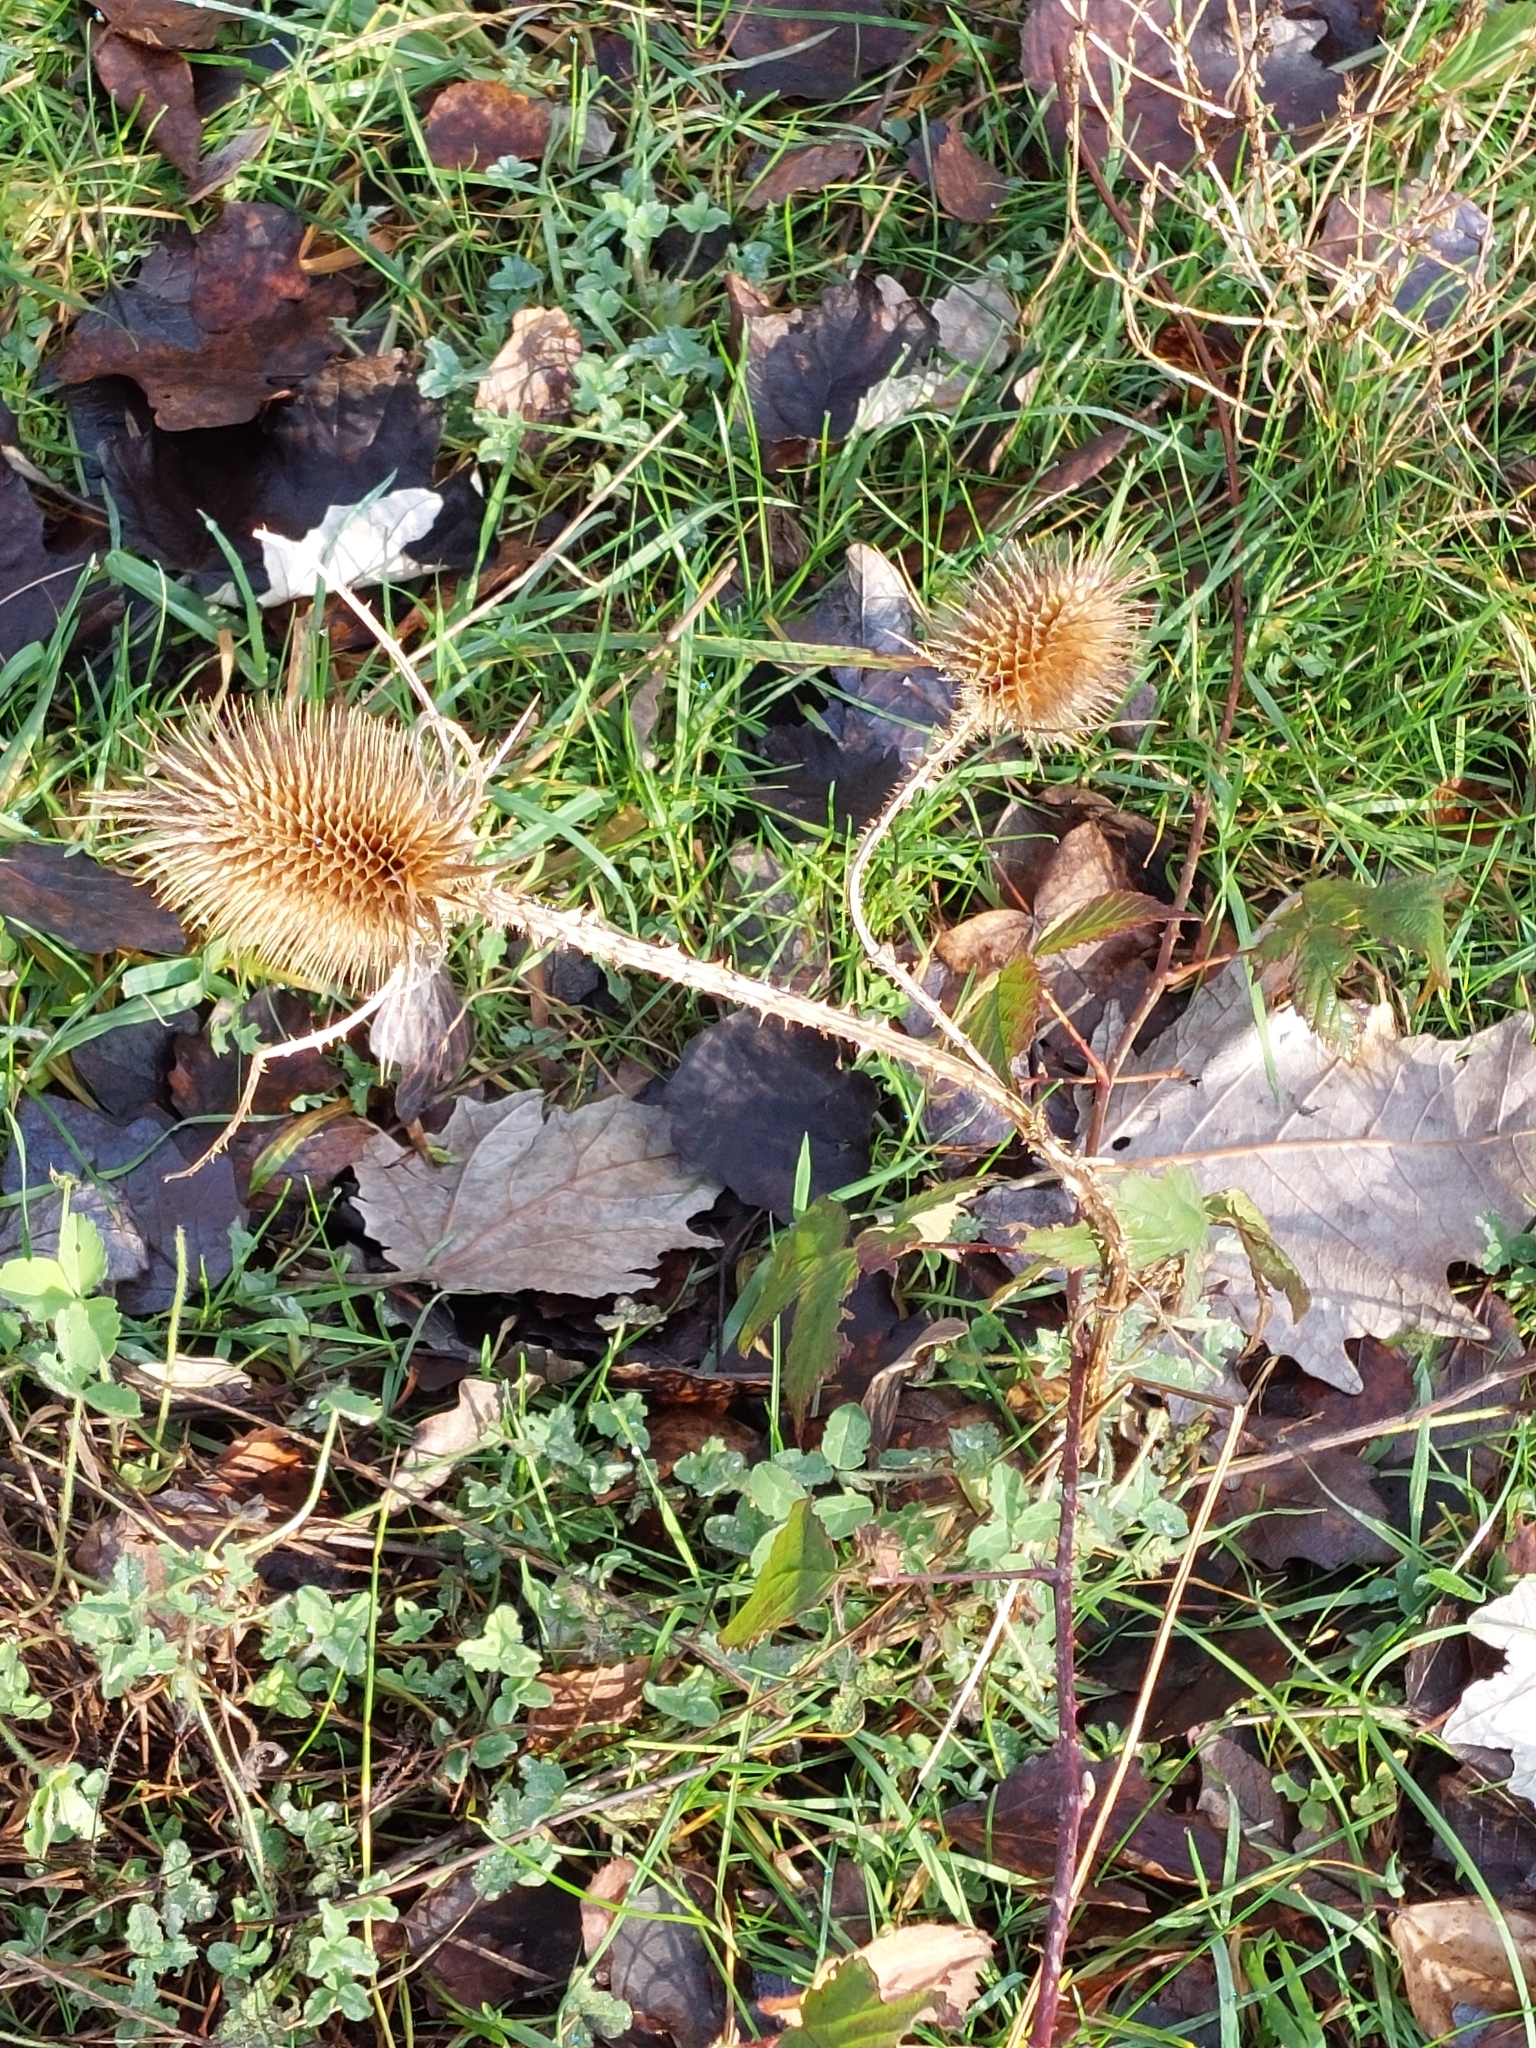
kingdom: Plantae
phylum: Tracheophyta
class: Magnoliopsida
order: Dipsacales
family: Caprifoliaceae
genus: Dipsacus
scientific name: Dipsacus fullonum
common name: Teasel
